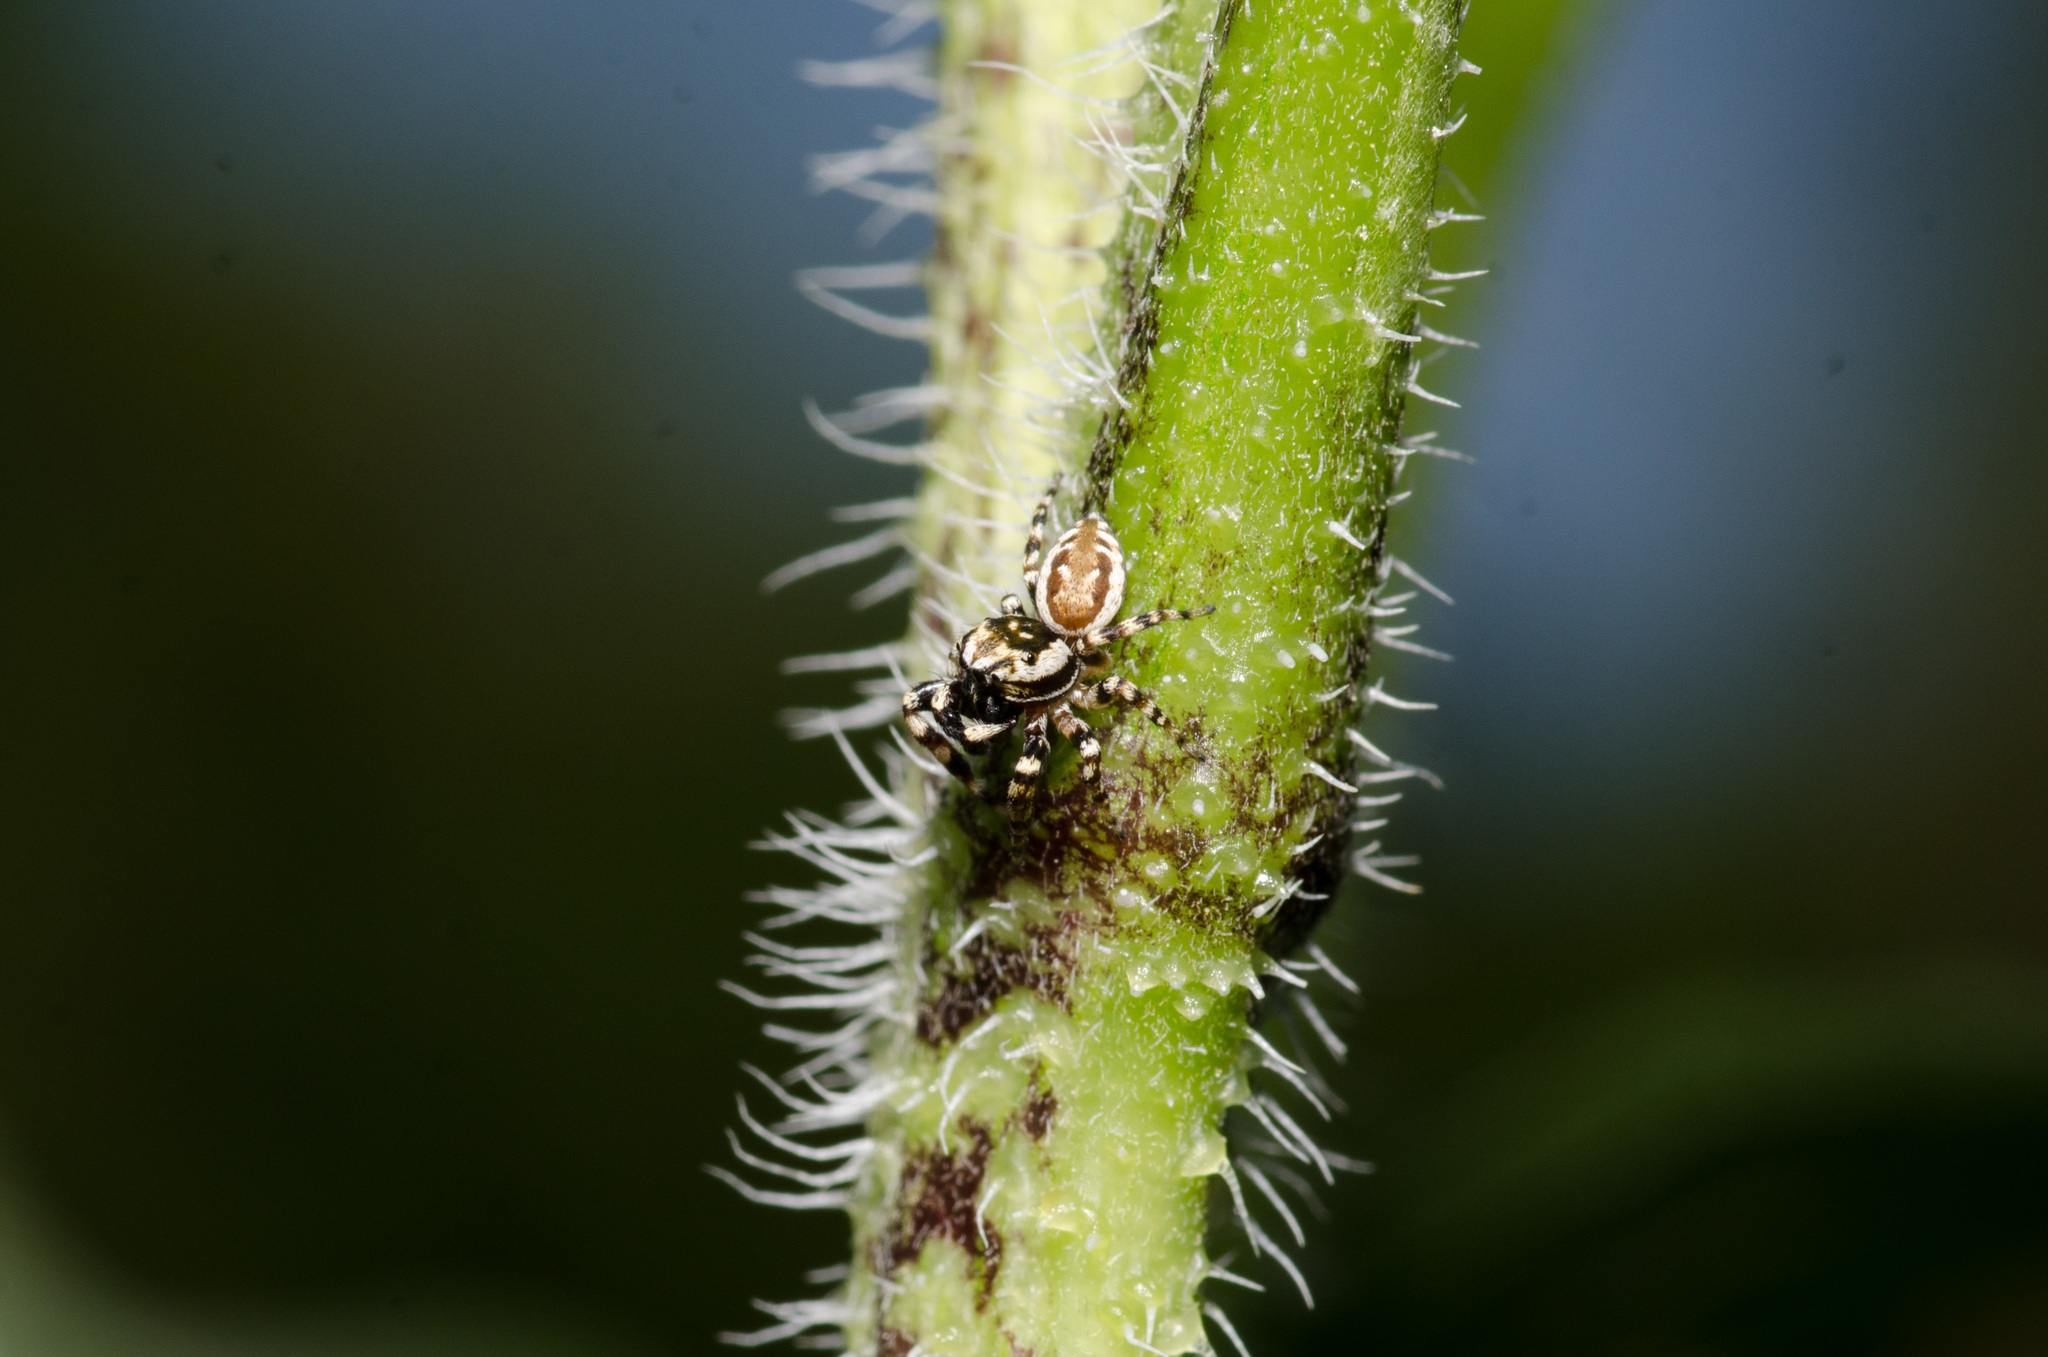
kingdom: Animalia
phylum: Arthropoda
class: Arachnida
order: Araneae
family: Salticidae
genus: Pelegrina
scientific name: Pelegrina galathea
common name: Jumping spiders
